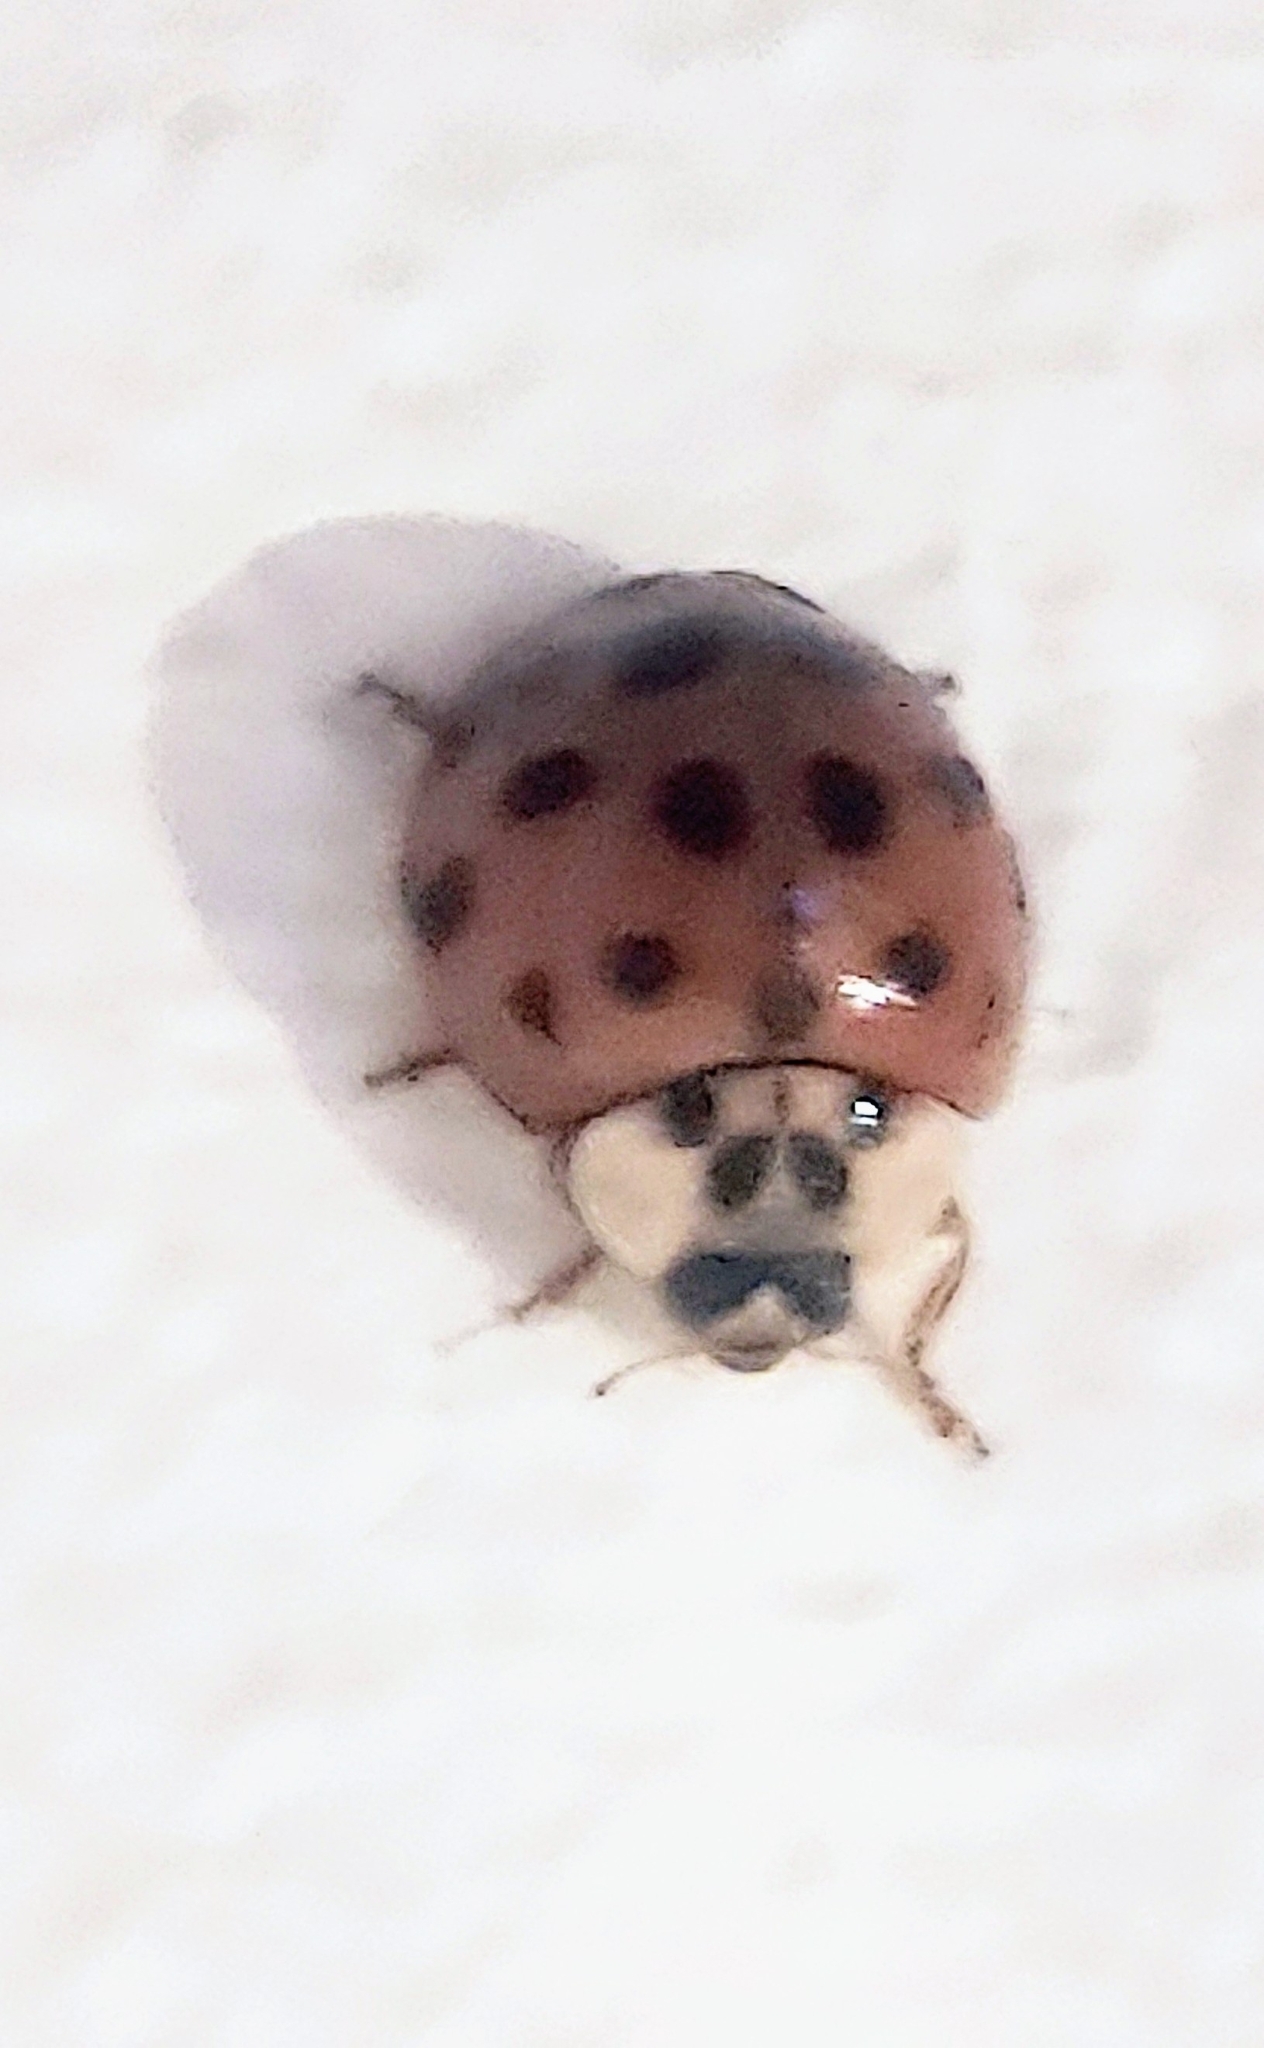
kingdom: Animalia
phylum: Arthropoda
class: Insecta
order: Coleoptera
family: Coccinellidae
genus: Harmonia
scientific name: Harmonia axyridis
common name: Harlequin ladybird
